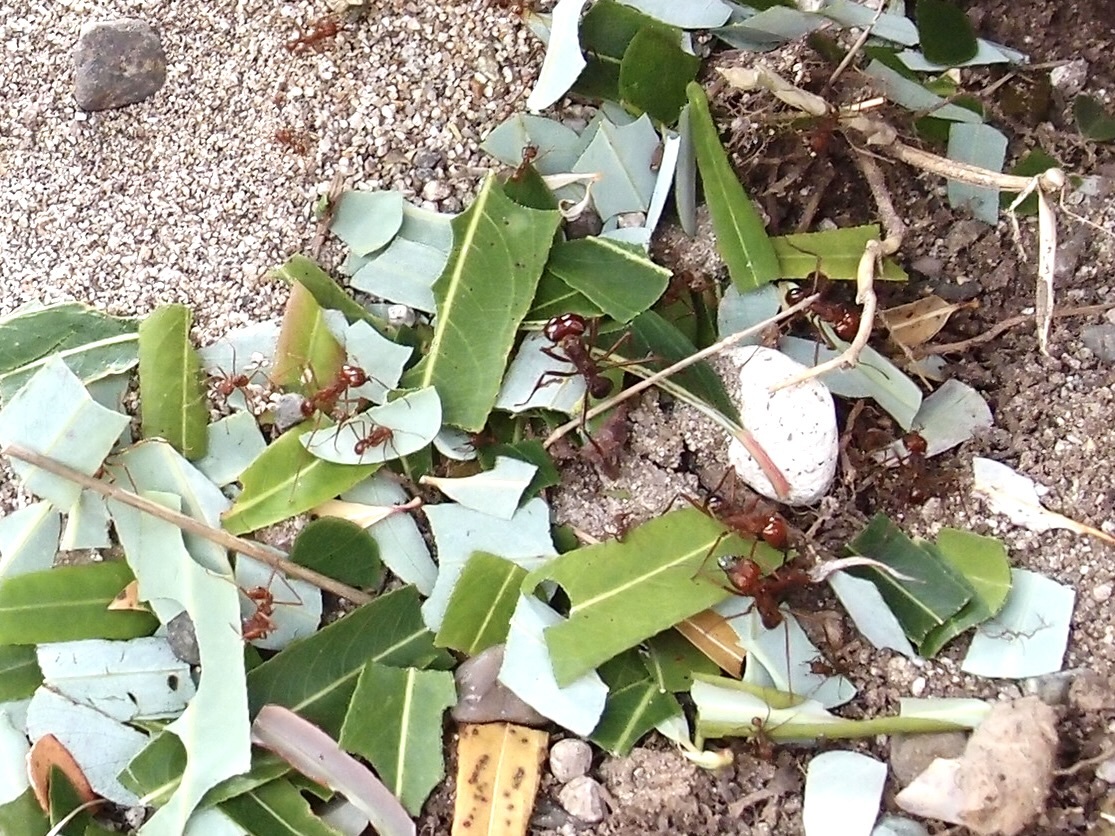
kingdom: Animalia
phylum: Arthropoda
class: Insecta
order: Hymenoptera
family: Formicidae
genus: Atta
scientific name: Atta mexicana
